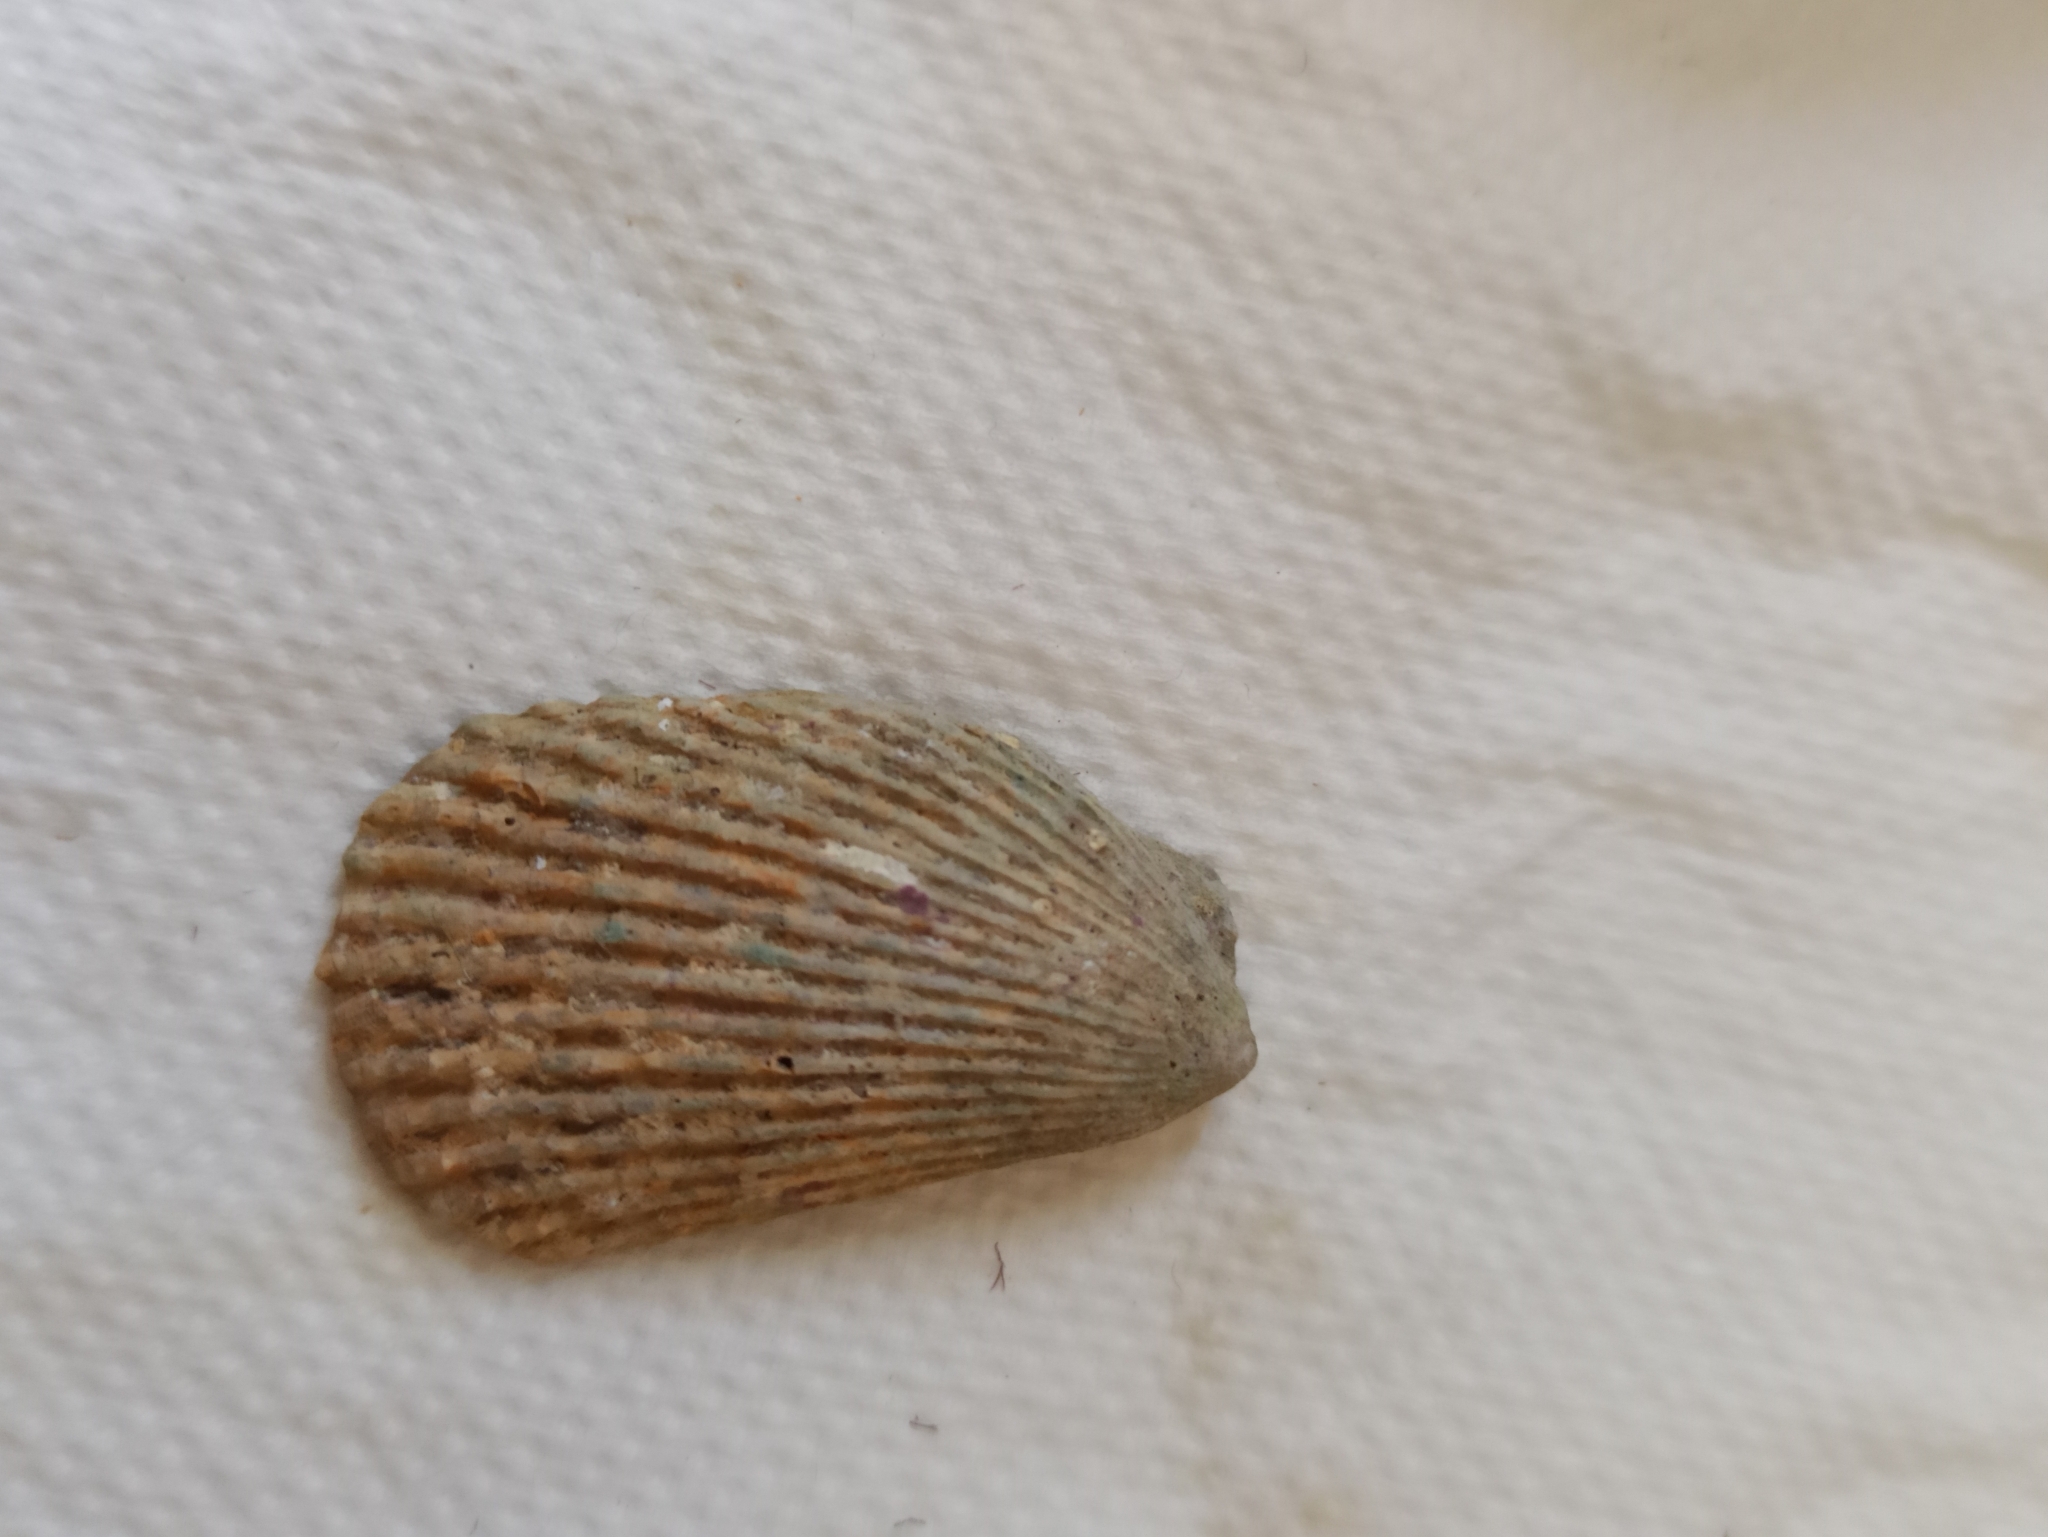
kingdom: Animalia
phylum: Mollusca
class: Bivalvia
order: Limida
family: Limidae
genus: Lima
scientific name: Lima lima
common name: Frilled file shell
